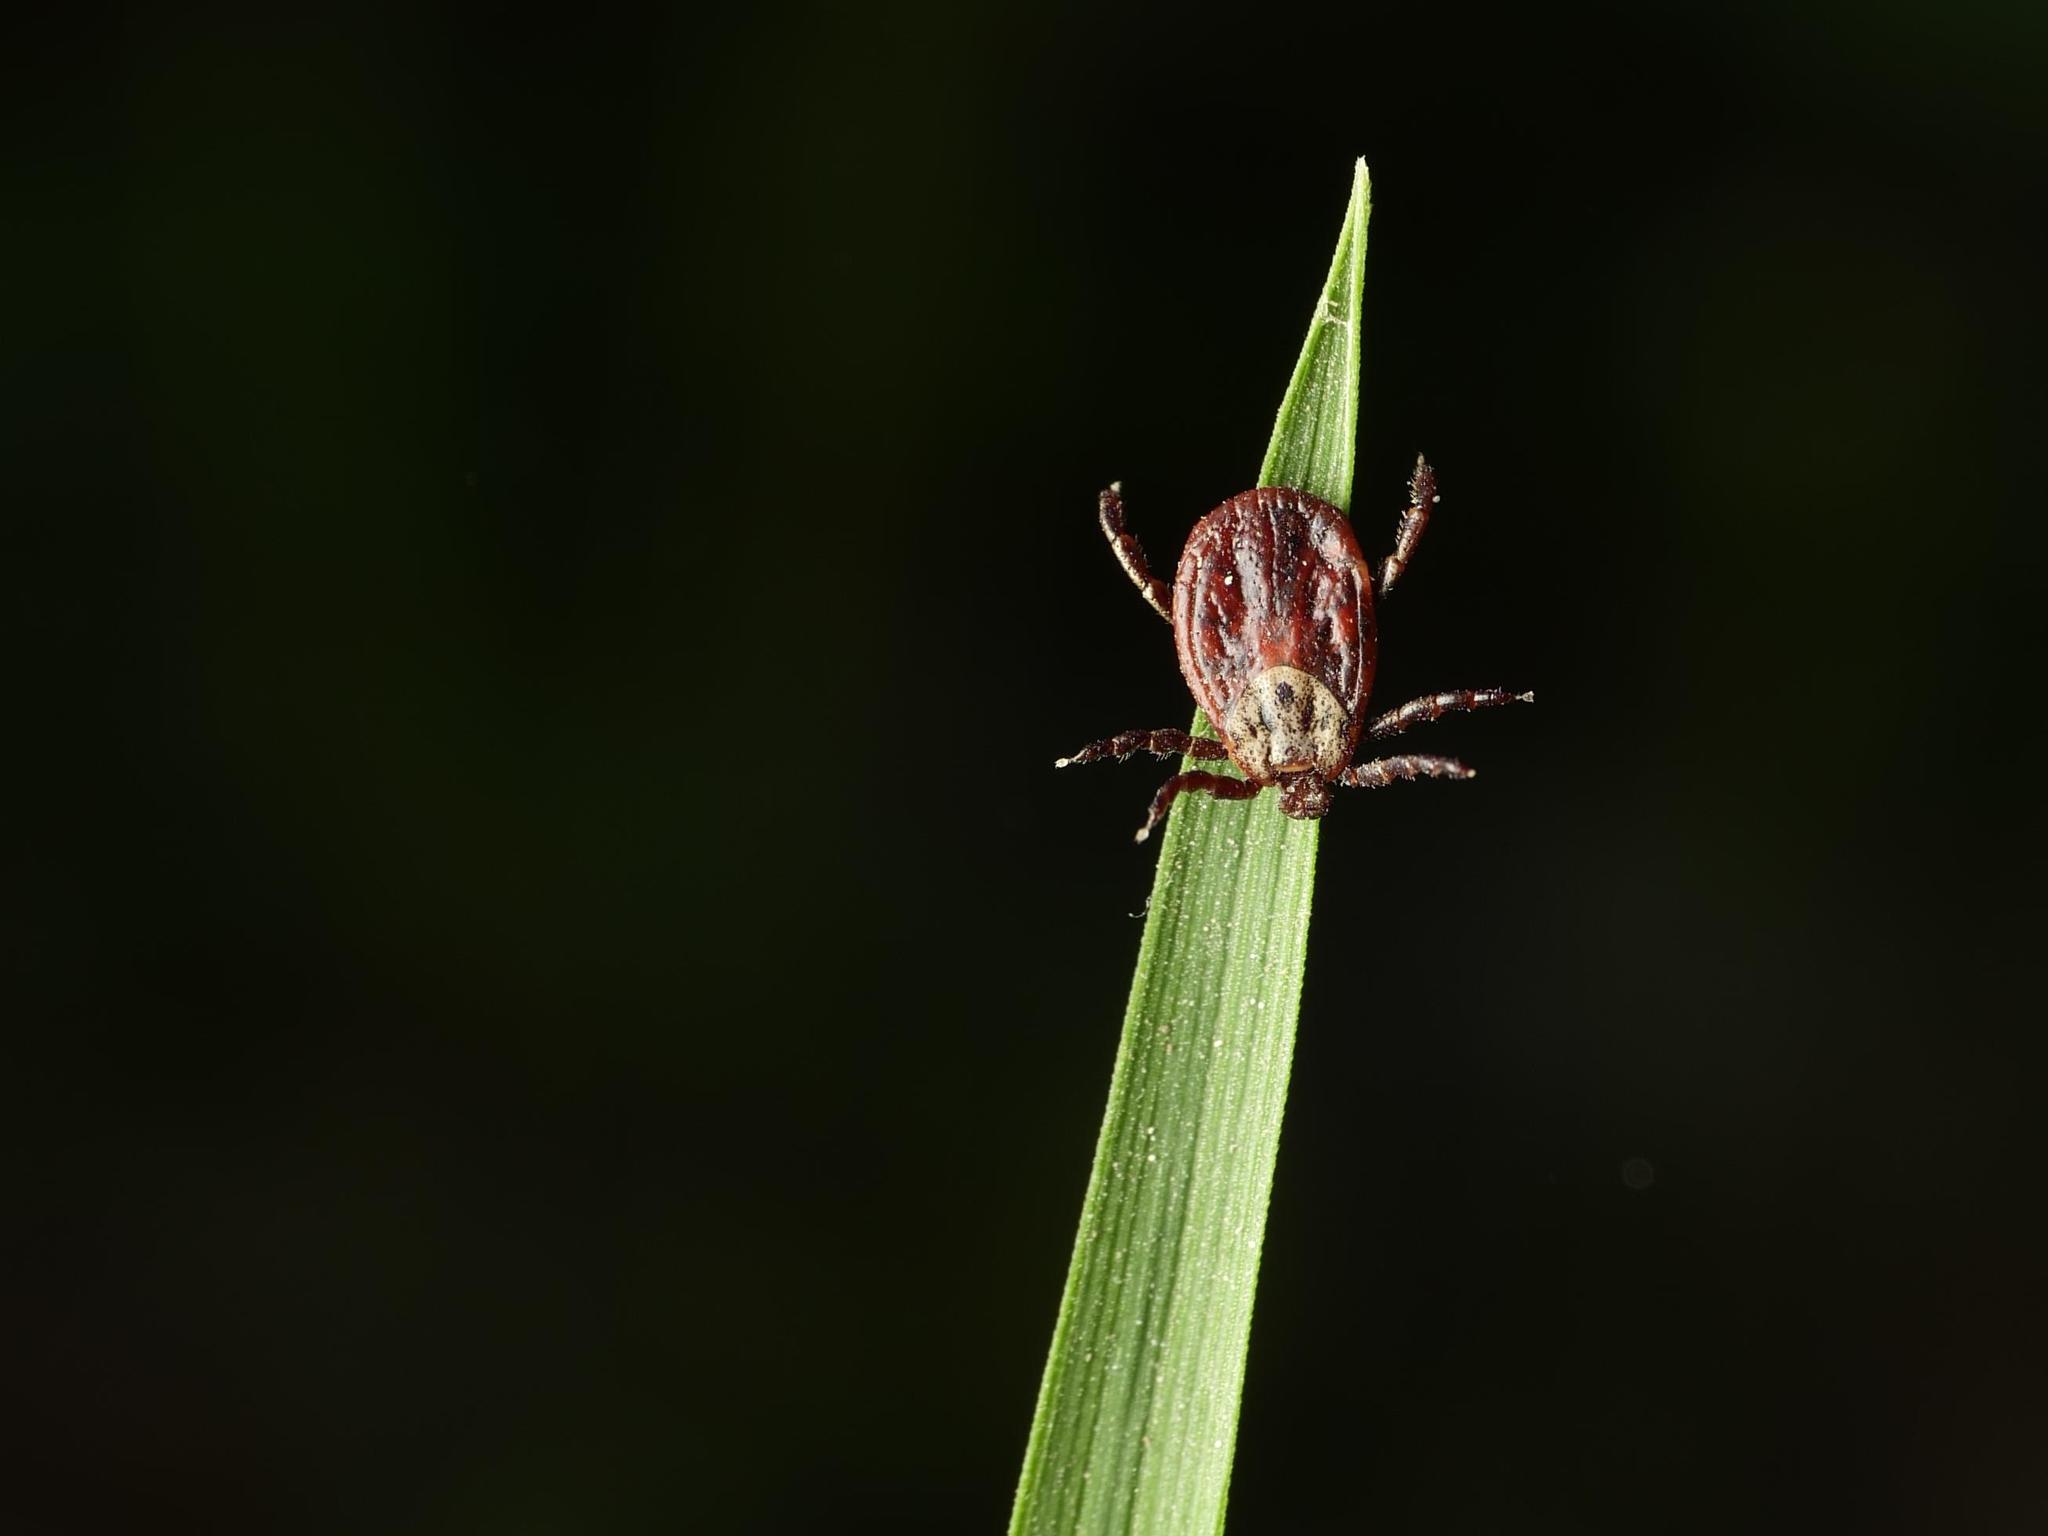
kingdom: Animalia
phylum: Arthropoda
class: Arachnida
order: Ixodida
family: Ixodidae
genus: Dermacentor
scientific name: Dermacentor reticulatus
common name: Ornate cow tick
